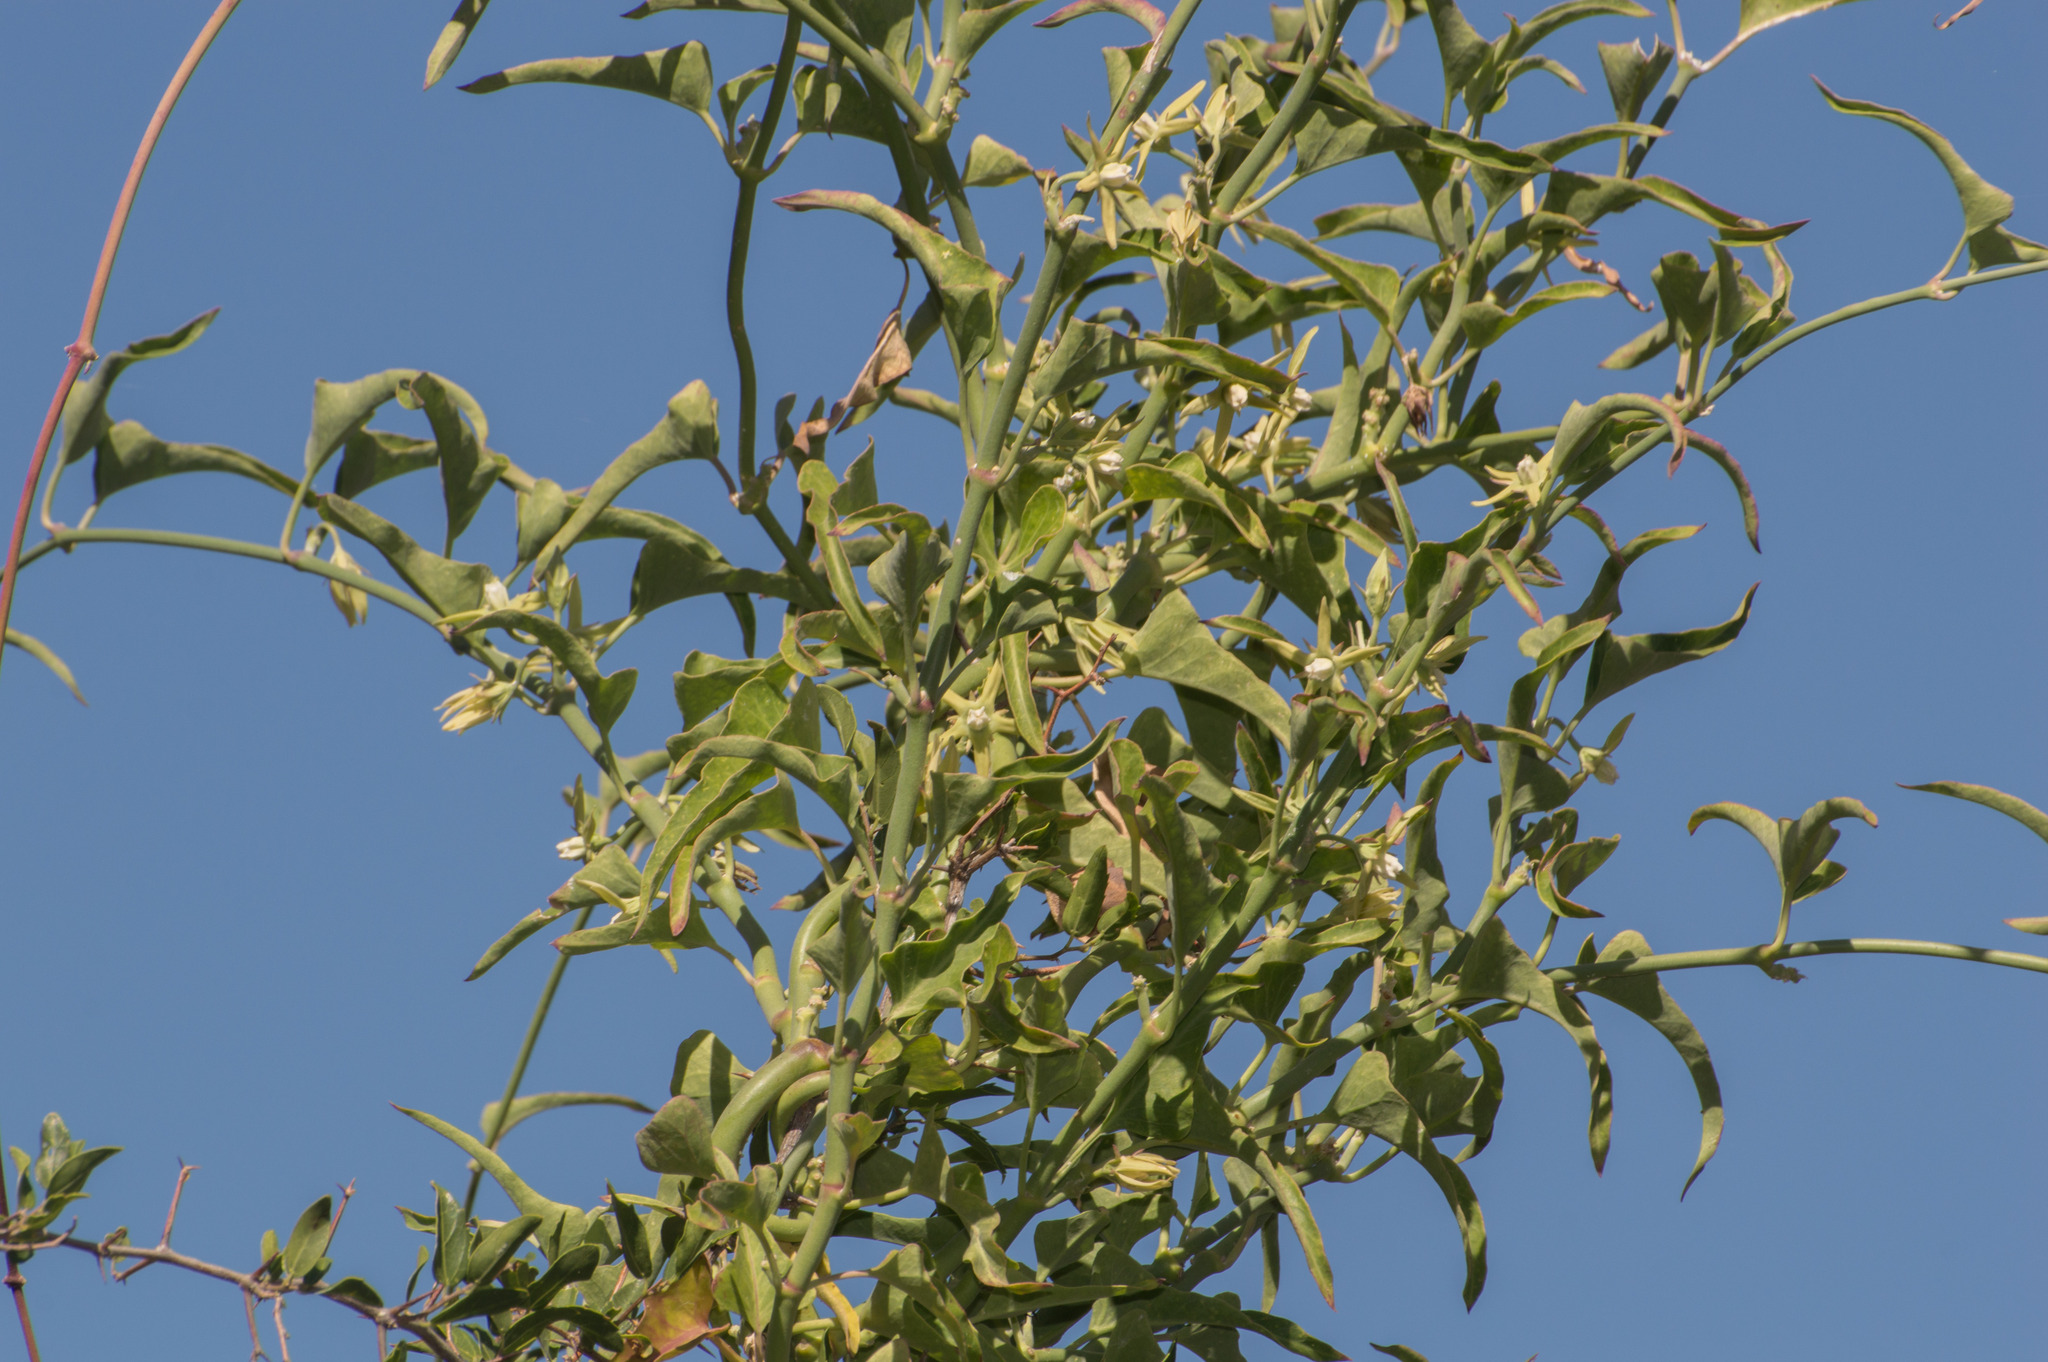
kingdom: Plantae
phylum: Tracheophyta
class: Magnoliopsida
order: Gentianales
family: Apocynaceae
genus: Araujia
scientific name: Araujia odorata
